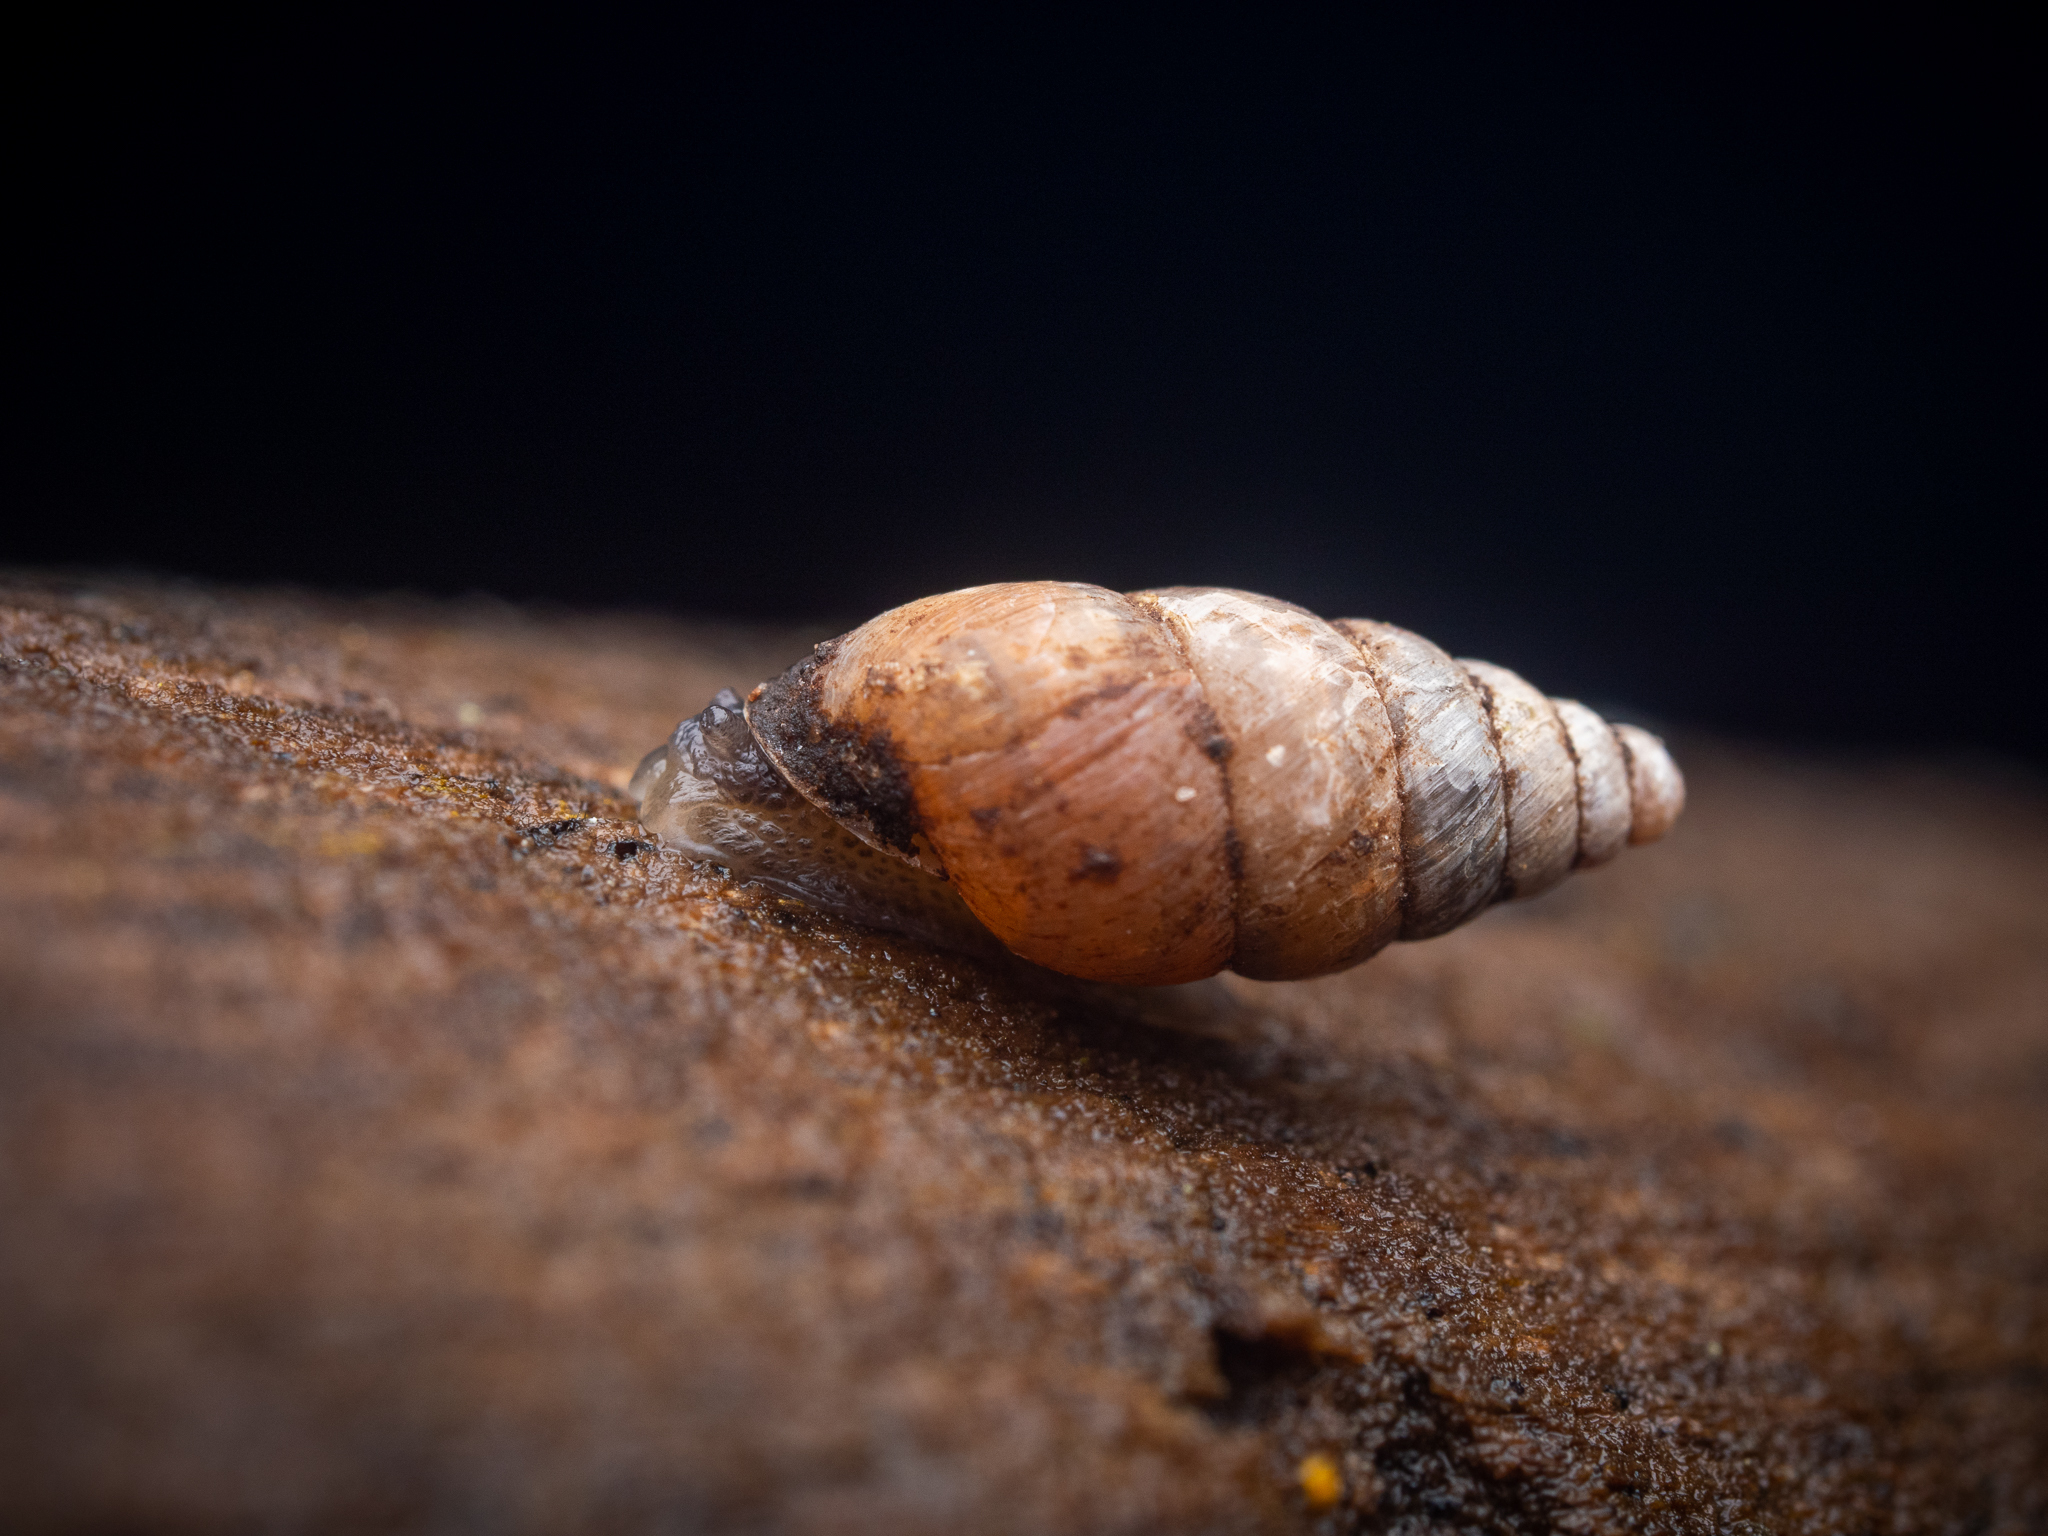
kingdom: Animalia
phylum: Mollusca
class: Gastropoda
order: Stylommatophora
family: Enidae
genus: Merdigera
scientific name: Merdigera obscura
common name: Lesser bulin
